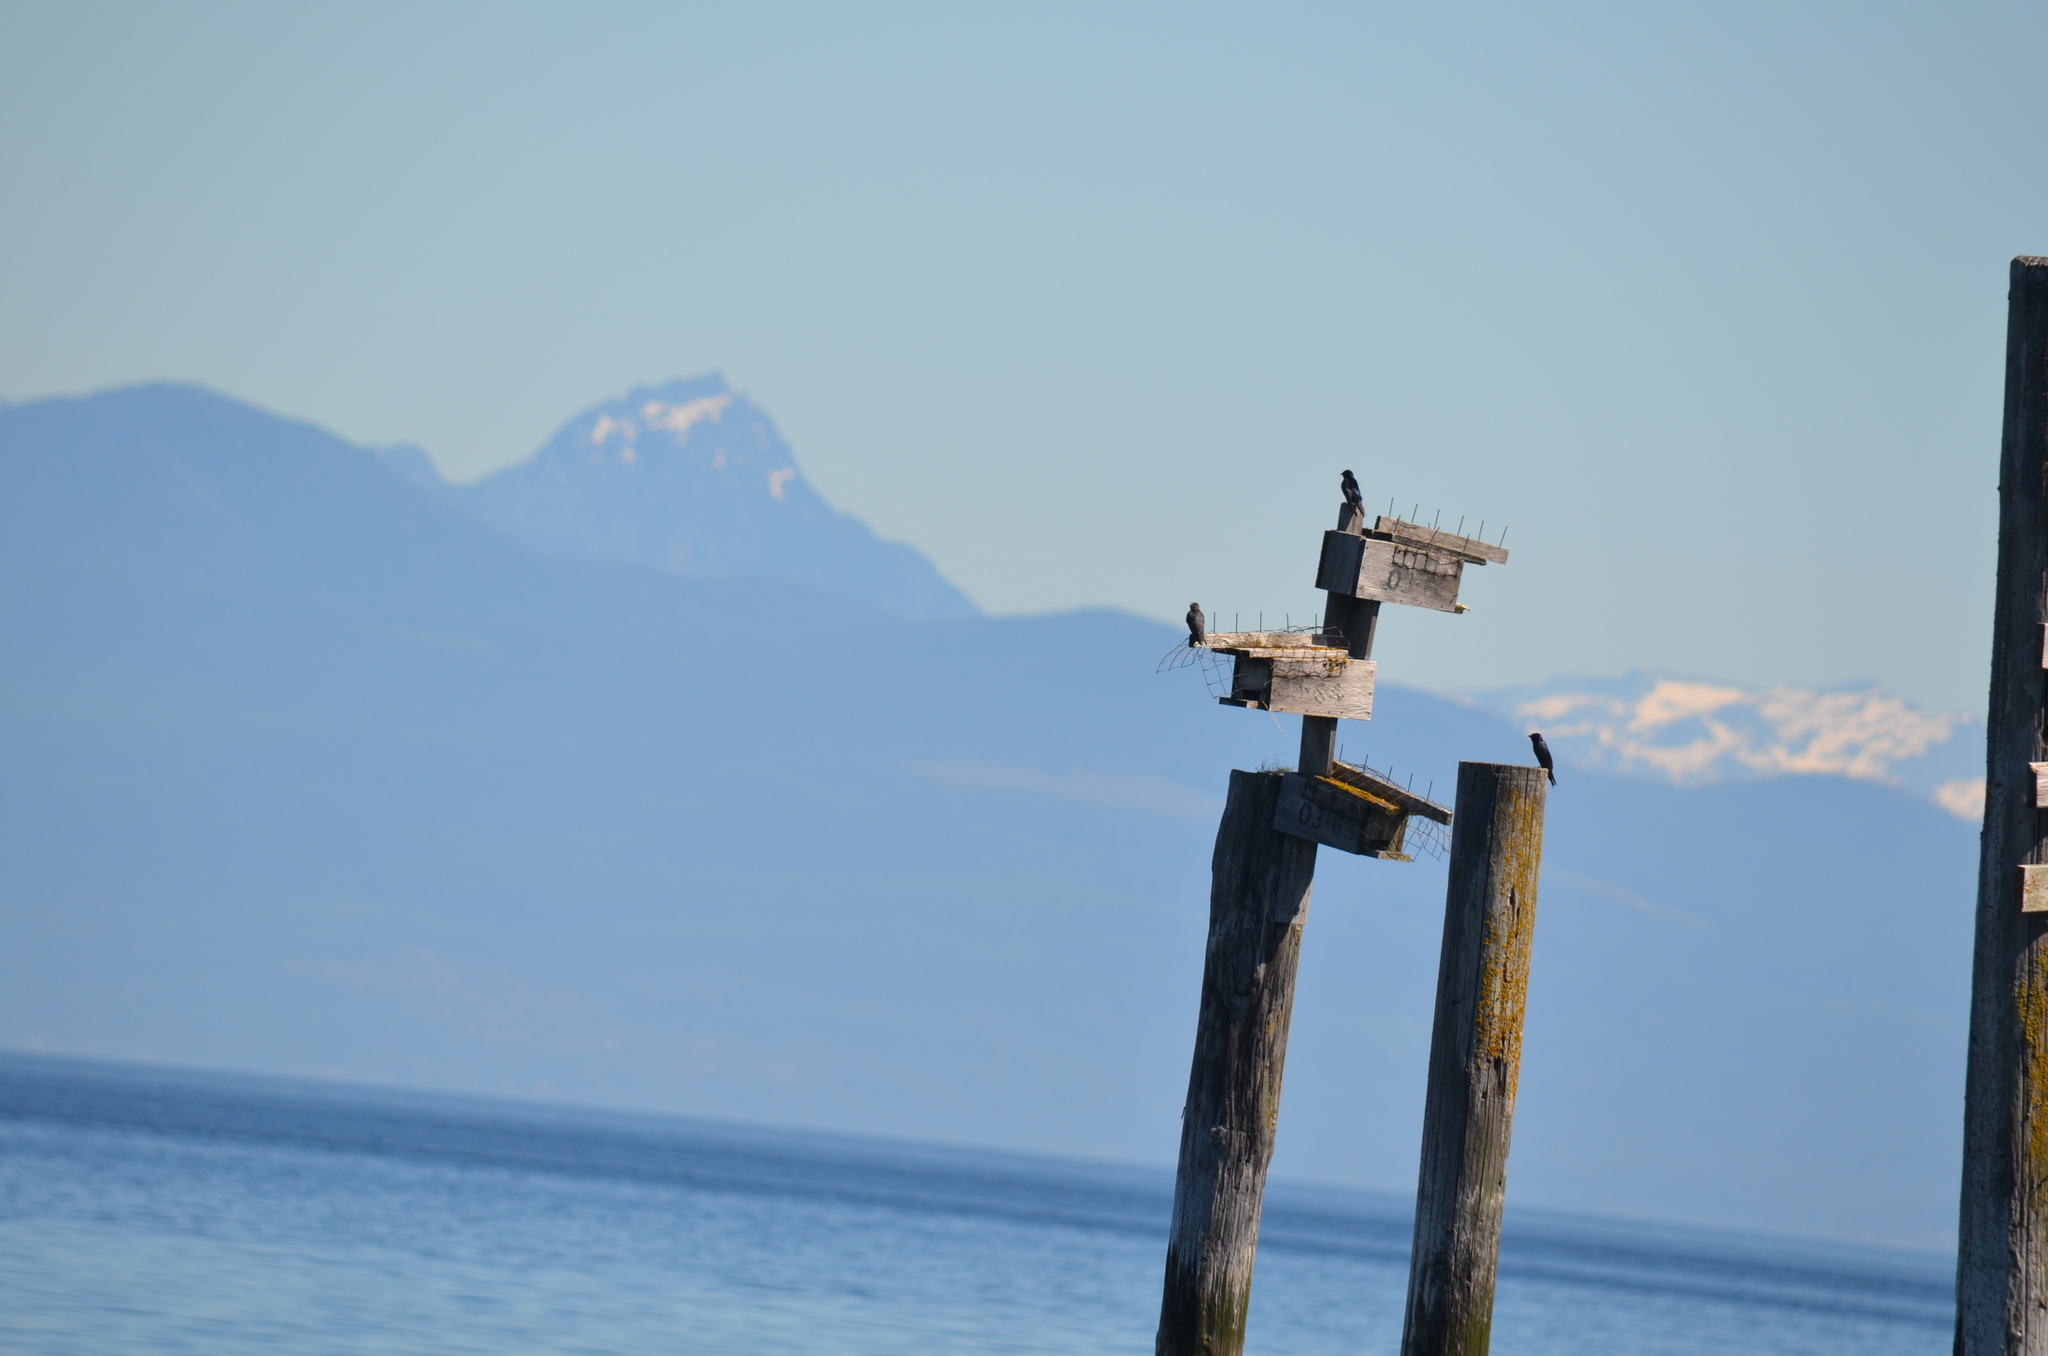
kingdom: Animalia
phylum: Chordata
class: Aves
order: Passeriformes
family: Hirundinidae
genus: Progne
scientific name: Progne subis
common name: Purple martin
